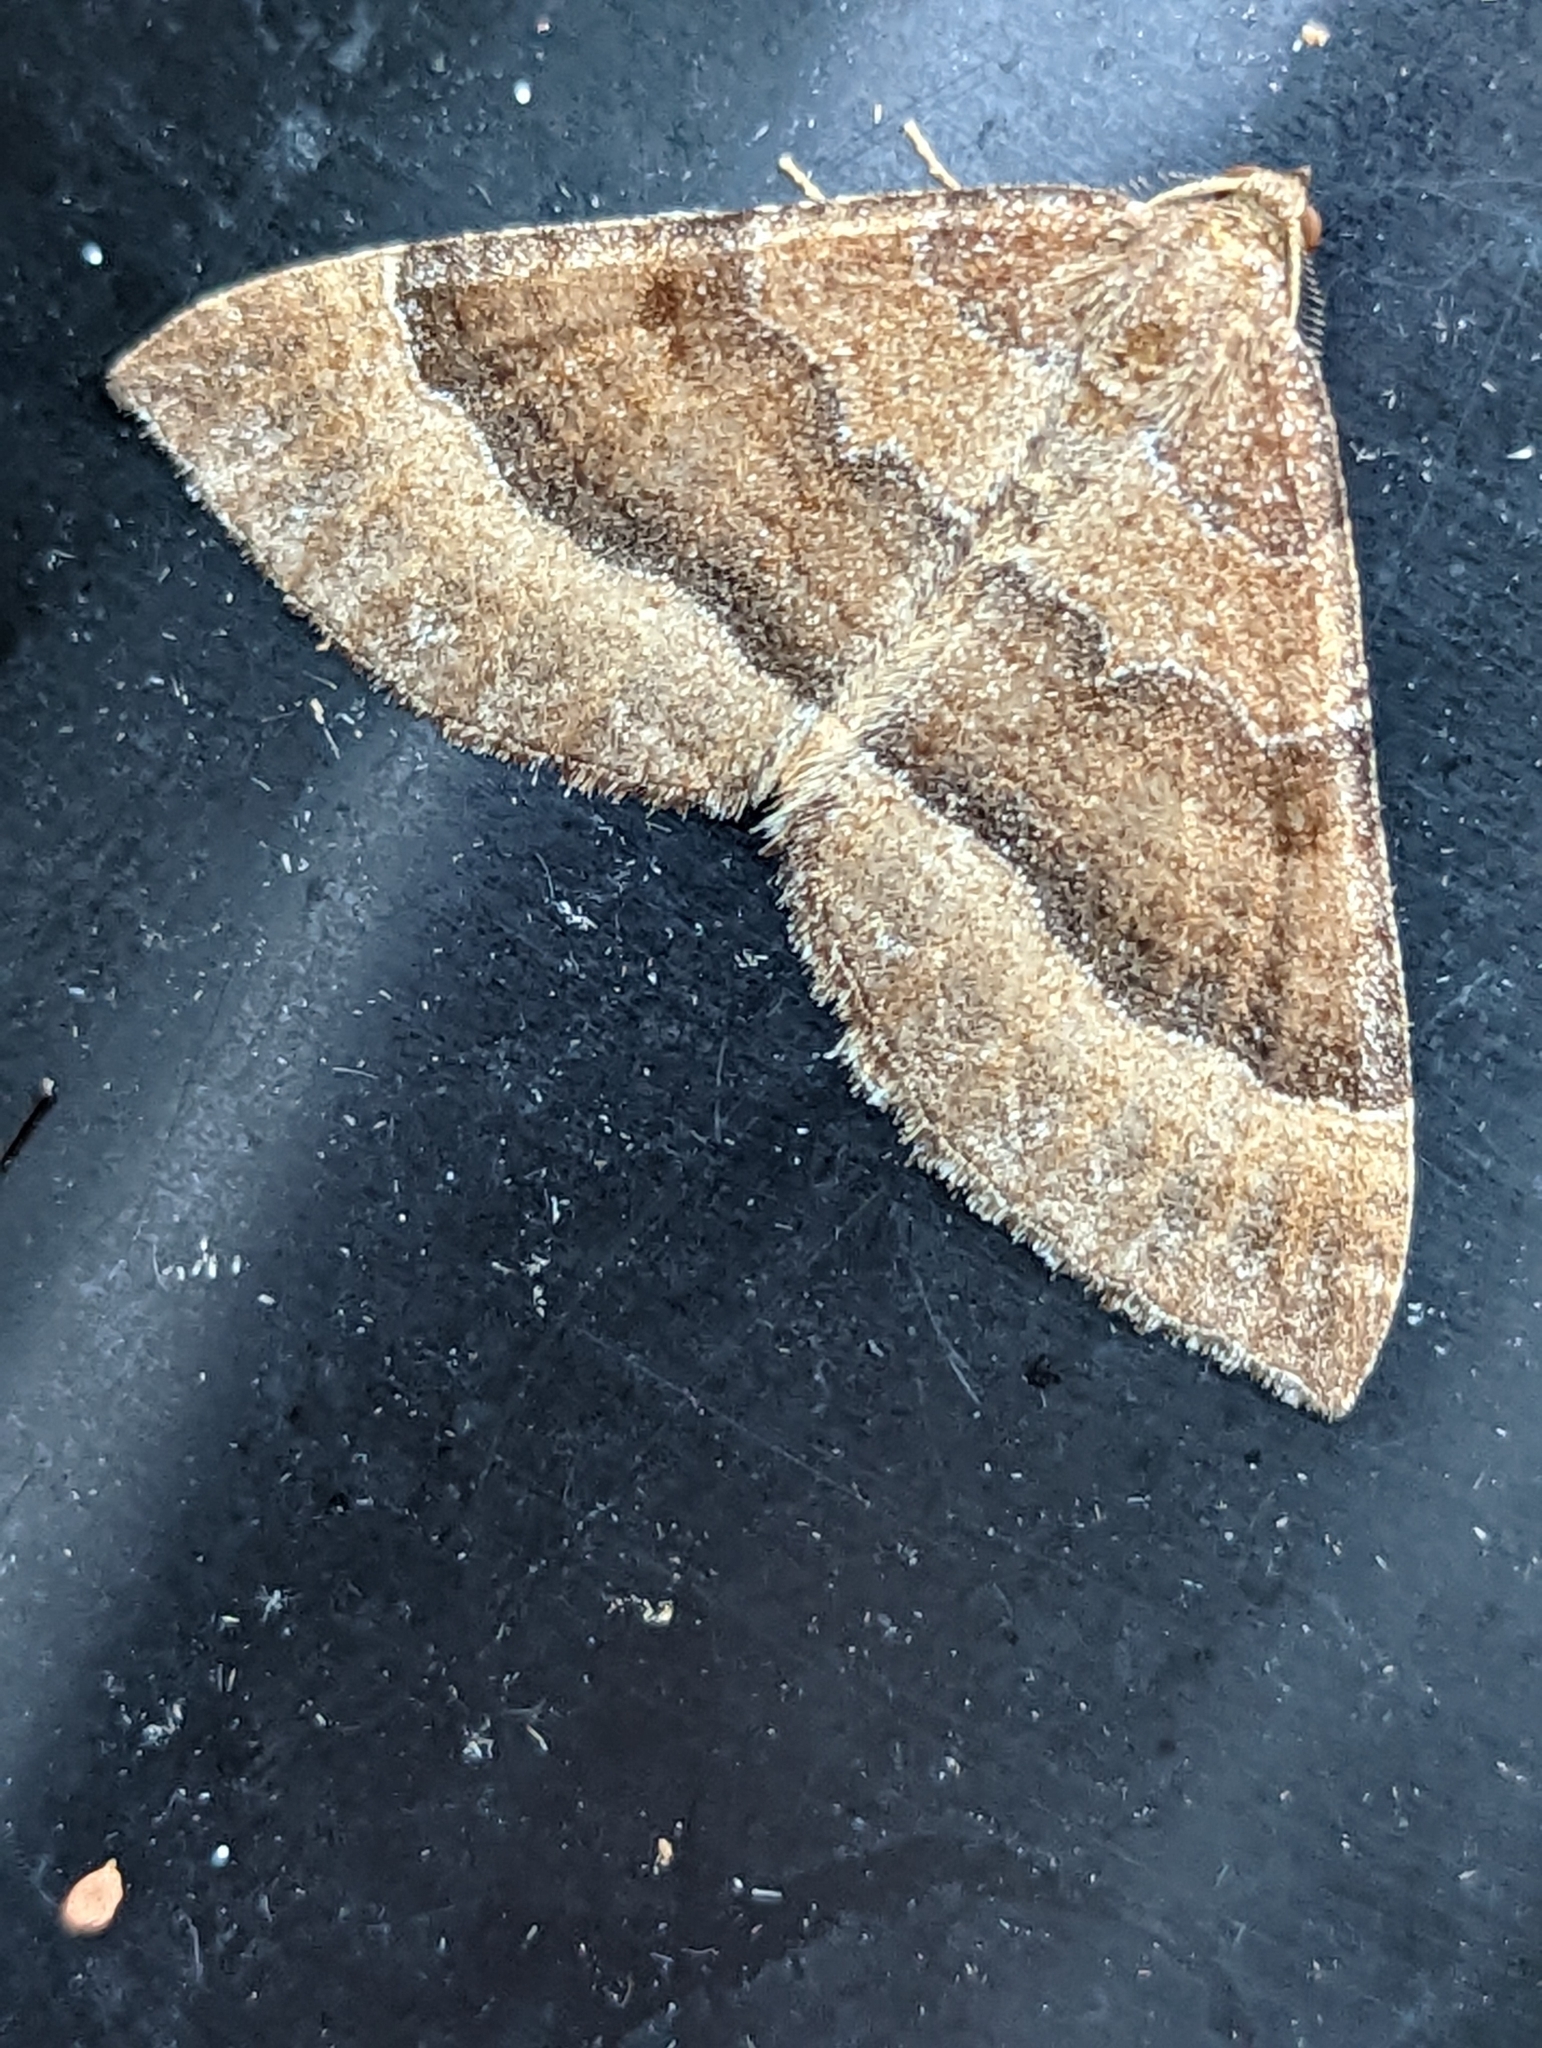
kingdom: Animalia
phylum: Arthropoda
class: Insecta
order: Lepidoptera
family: Geometridae
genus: Larentia
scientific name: Larentia clavaria
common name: Mallow
